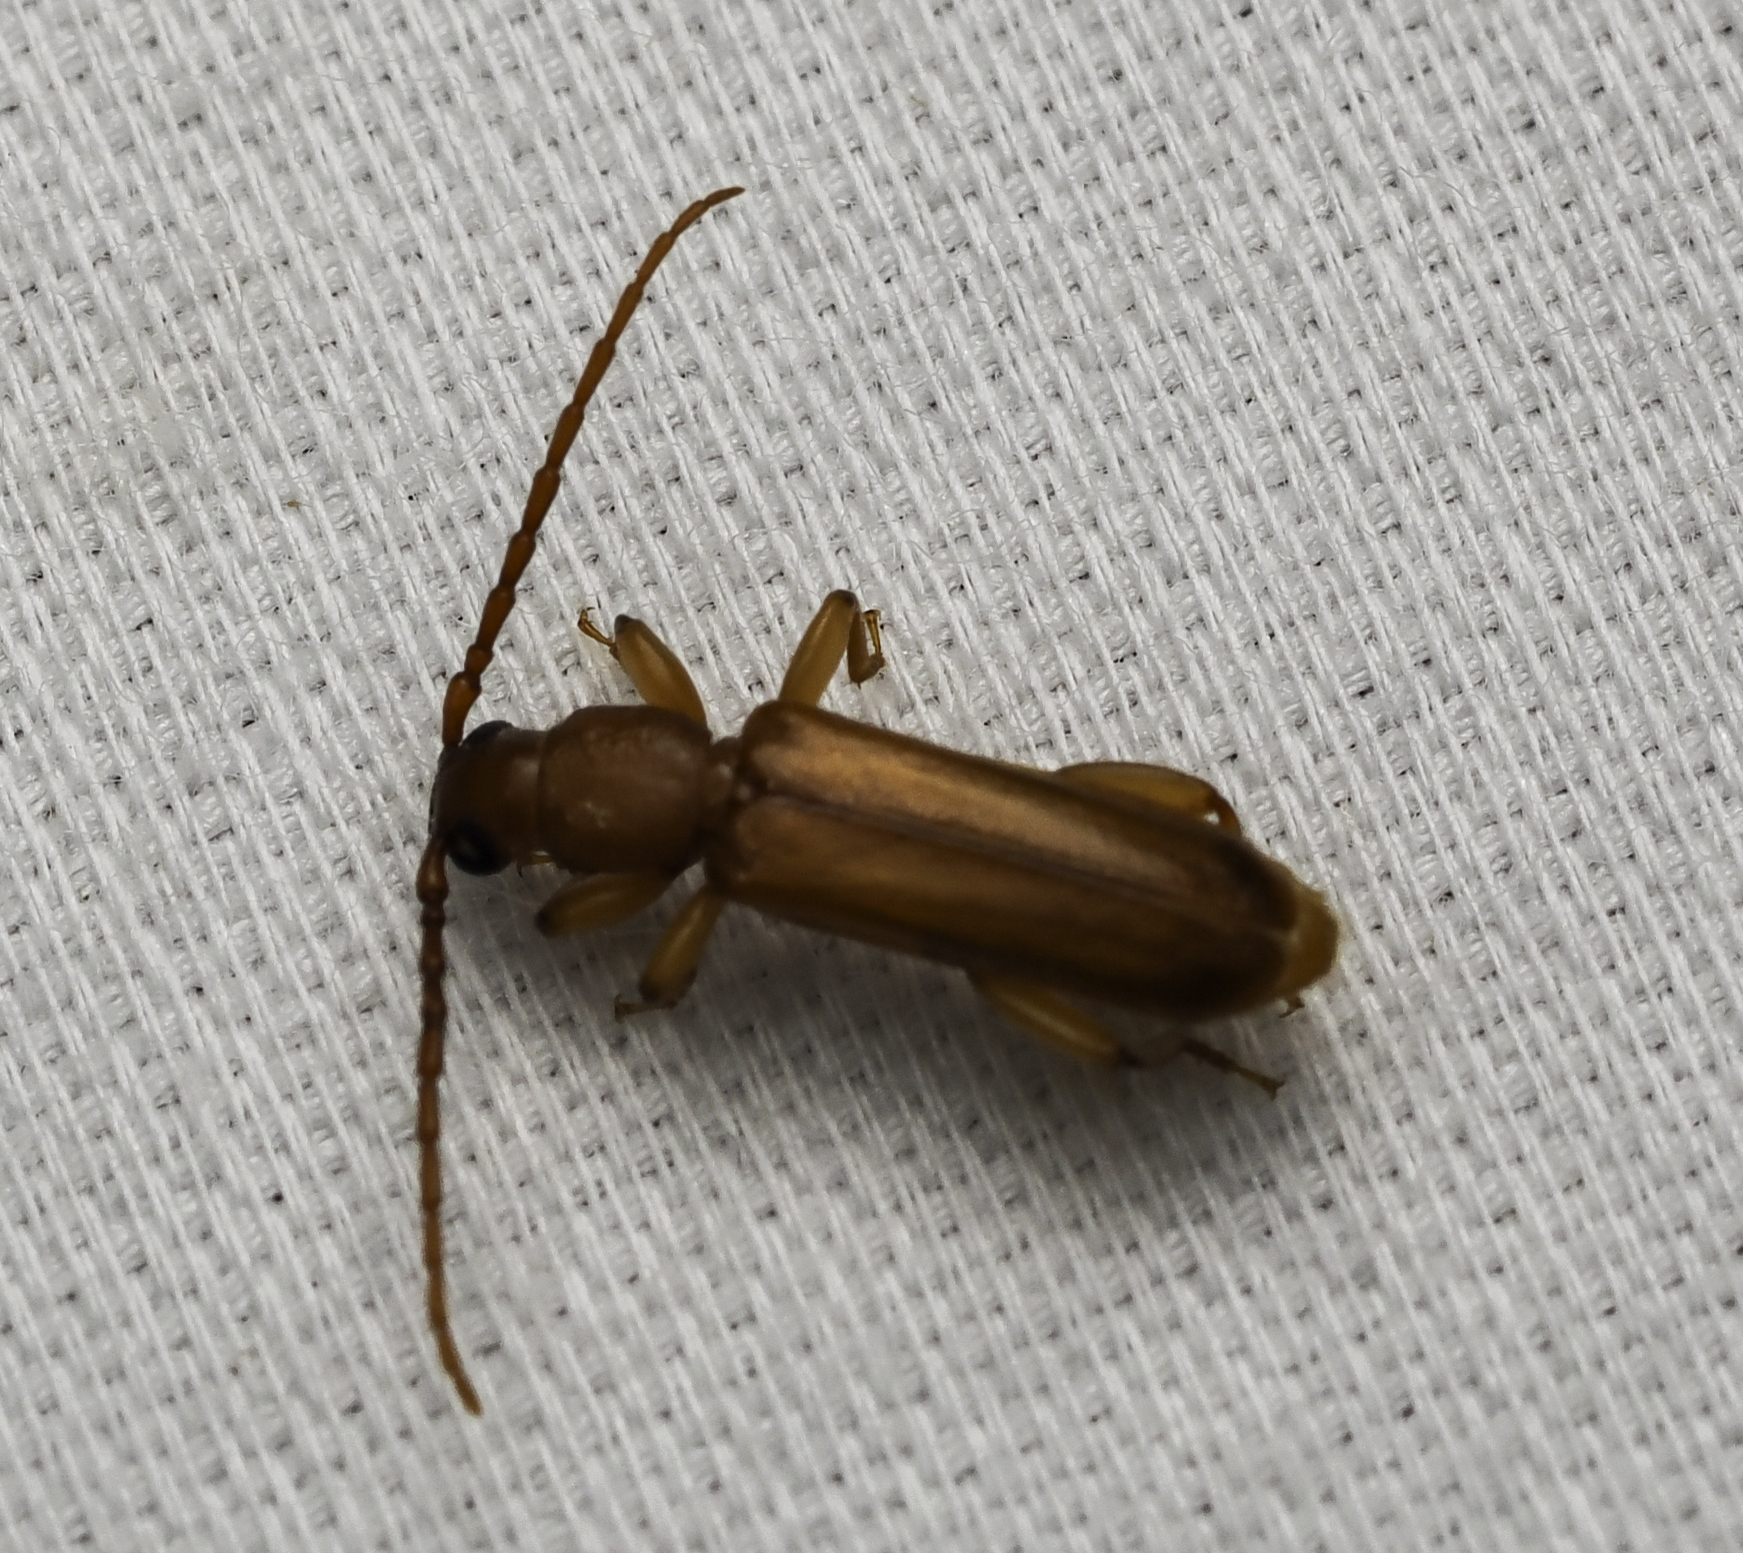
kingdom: Animalia
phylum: Arthropoda
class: Insecta
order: Coleoptera
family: Cerambycidae
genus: Smodicum
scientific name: Smodicum cucujiforme
